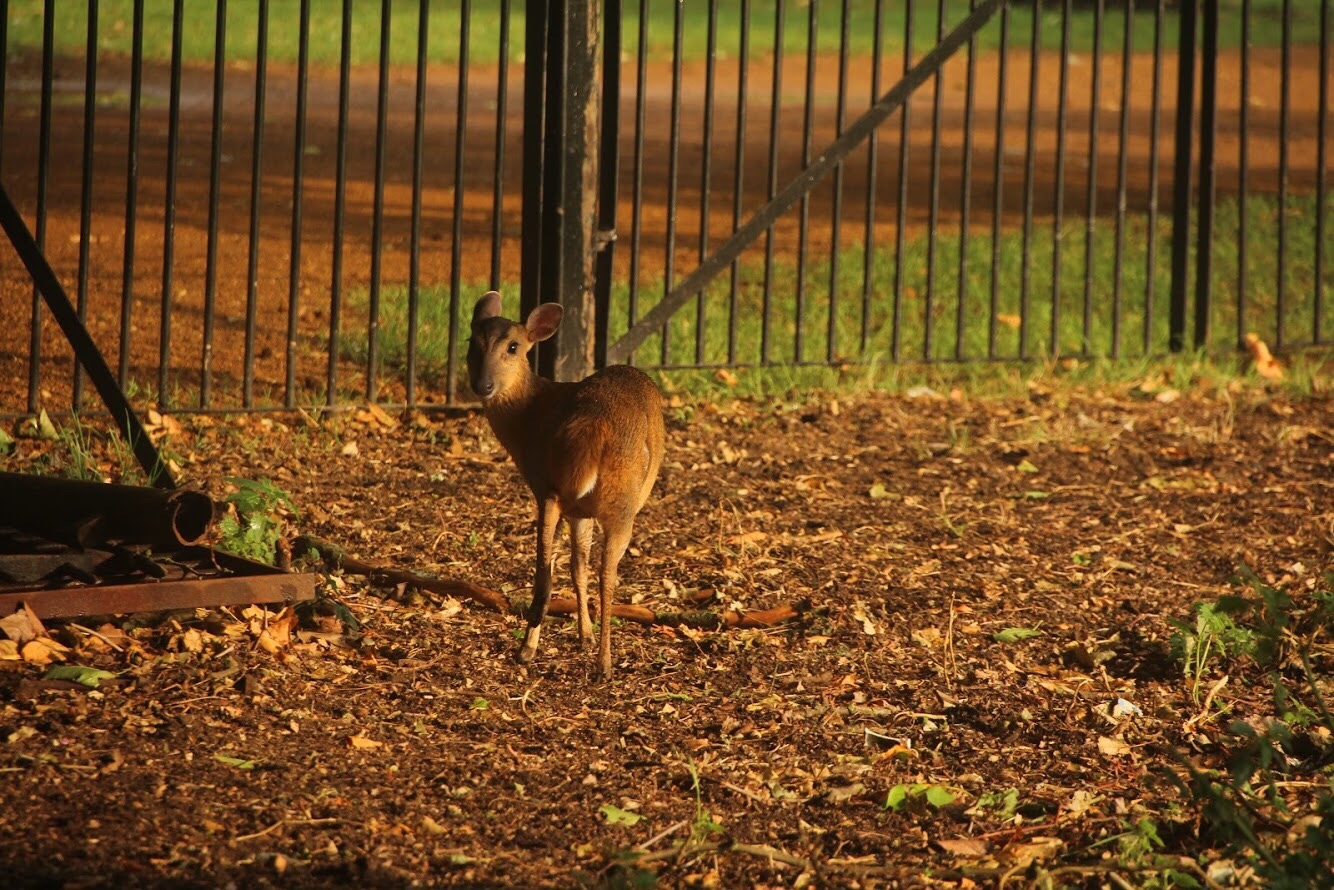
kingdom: Animalia
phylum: Chordata
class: Mammalia
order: Artiodactyla
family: Cervidae
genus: Muntiacus
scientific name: Muntiacus reevesi
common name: Reeves' muntjac
